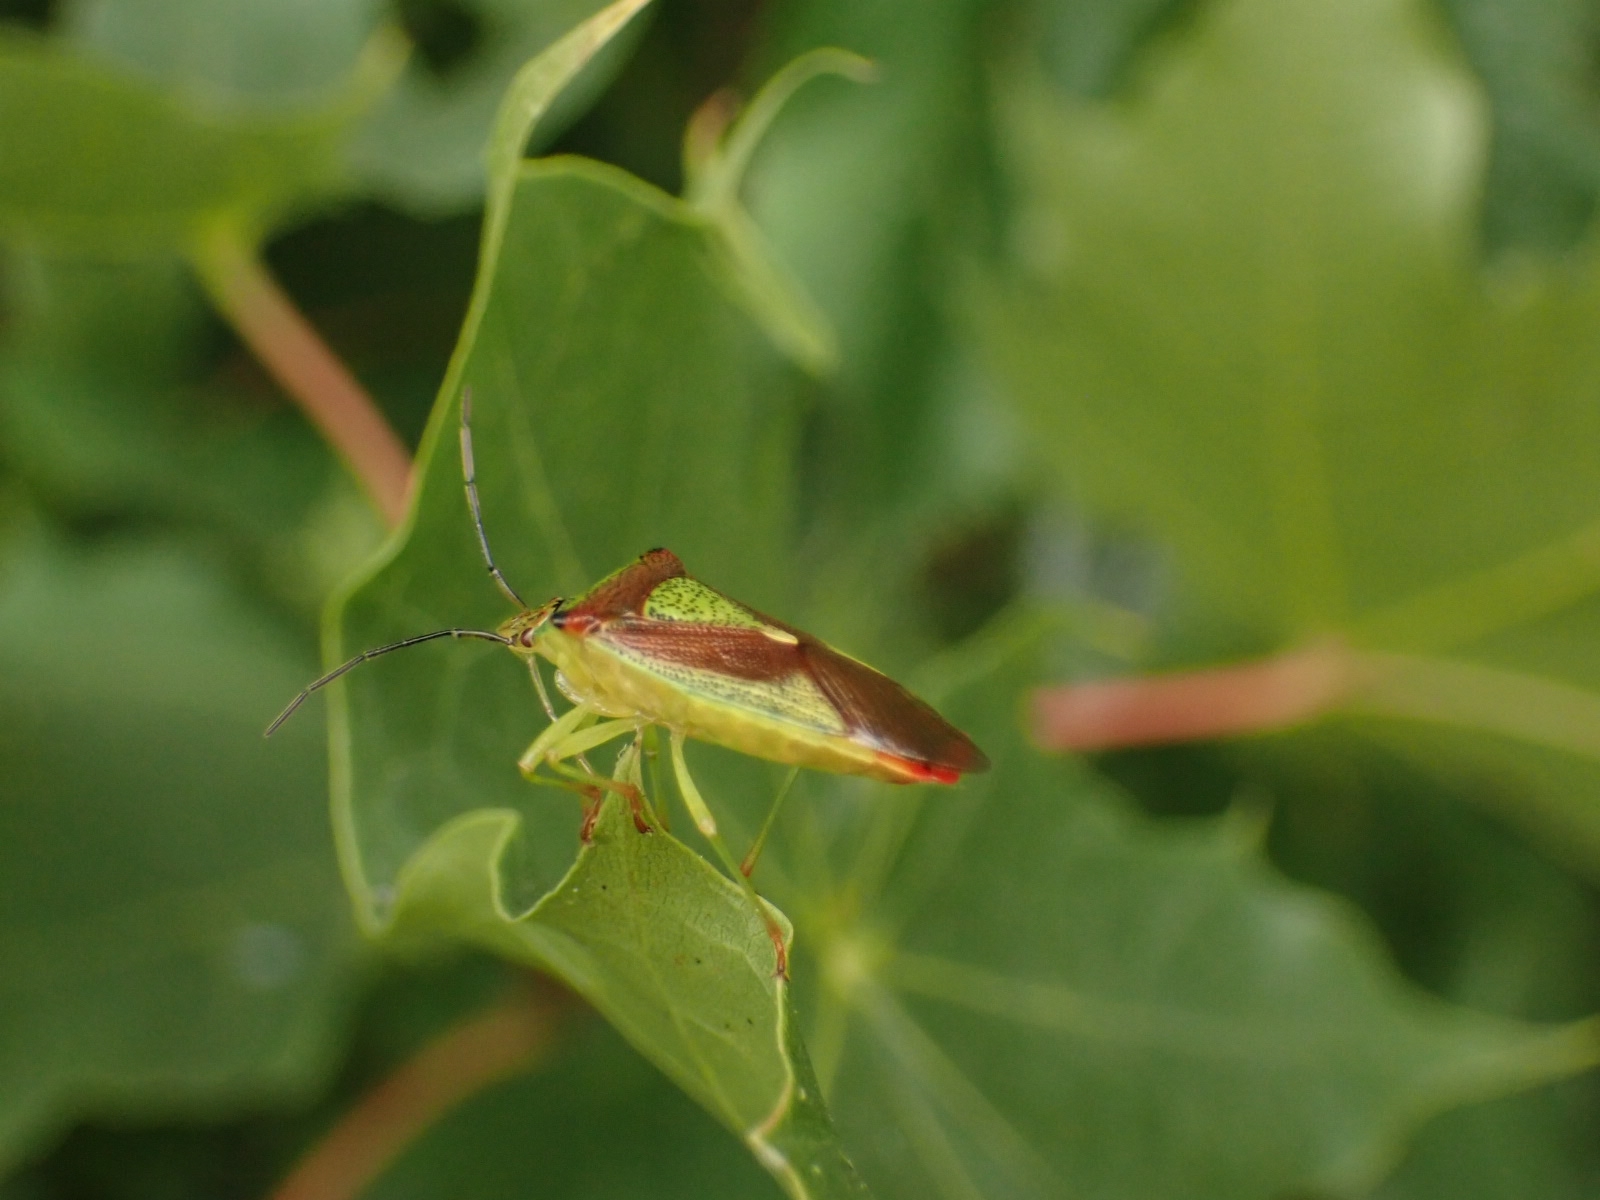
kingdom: Animalia
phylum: Arthropoda
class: Insecta
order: Hemiptera
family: Acanthosomatidae
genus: Acanthosoma
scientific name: Acanthosoma haemorrhoidale
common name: Hawthorn shieldbug
